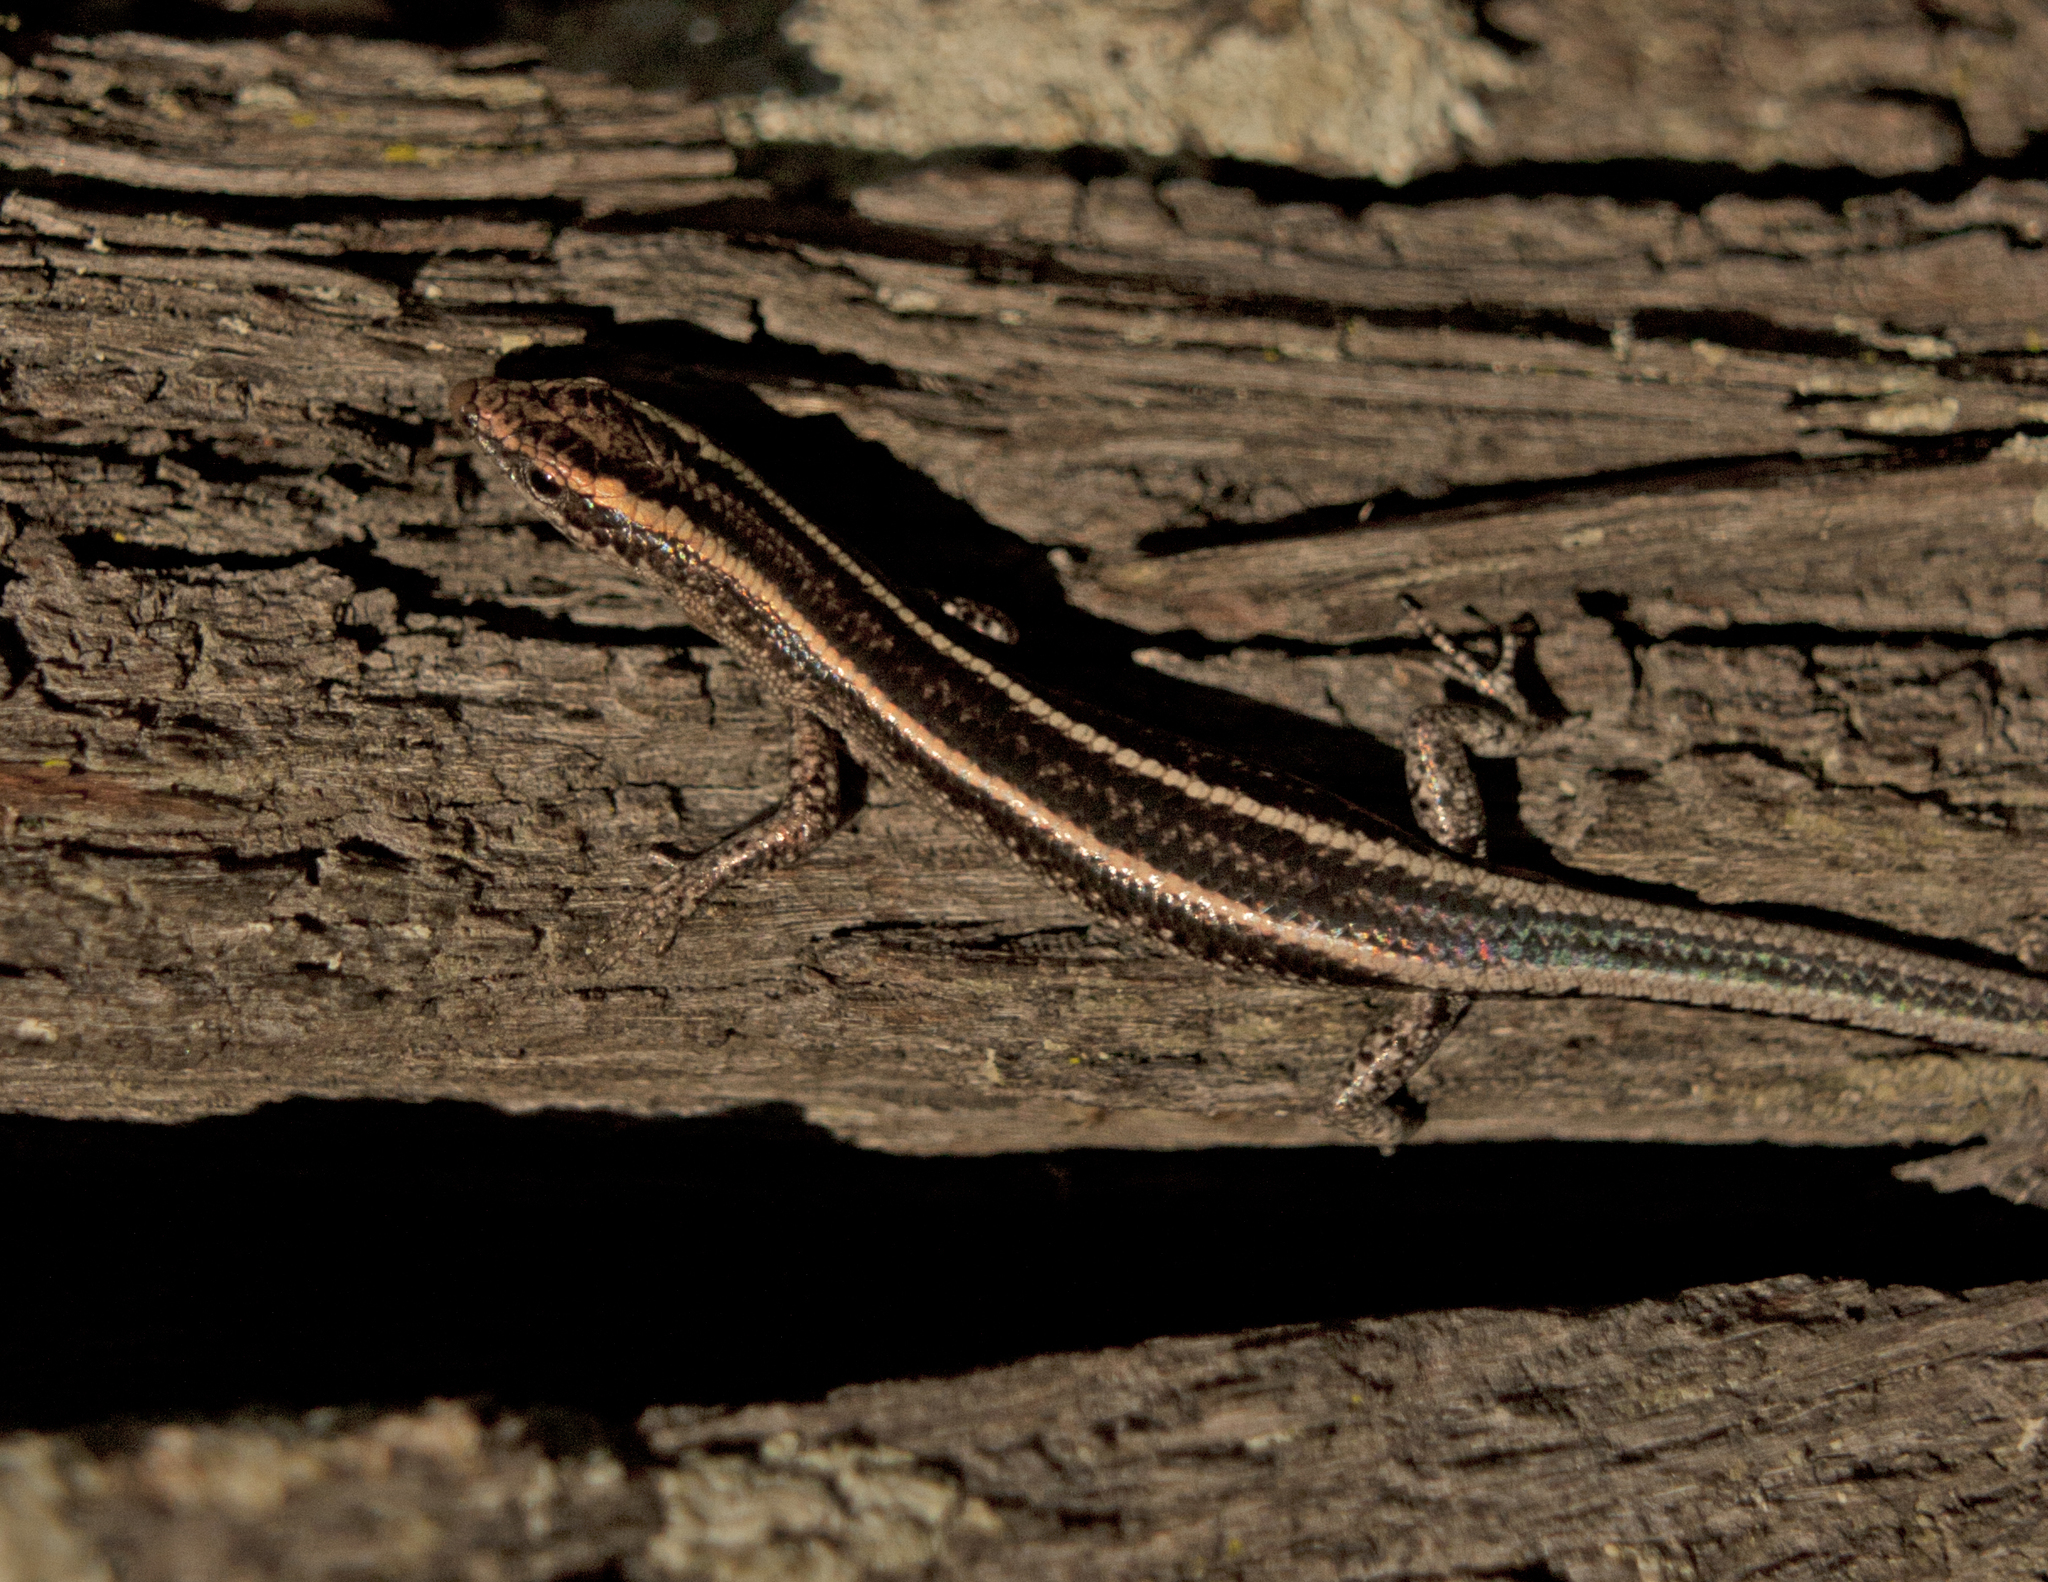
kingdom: Animalia
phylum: Chordata
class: Squamata
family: Scincidae
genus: Cryptoblepharus
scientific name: Cryptoblepharus pulcher
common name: Elegant snake-eyed skink
